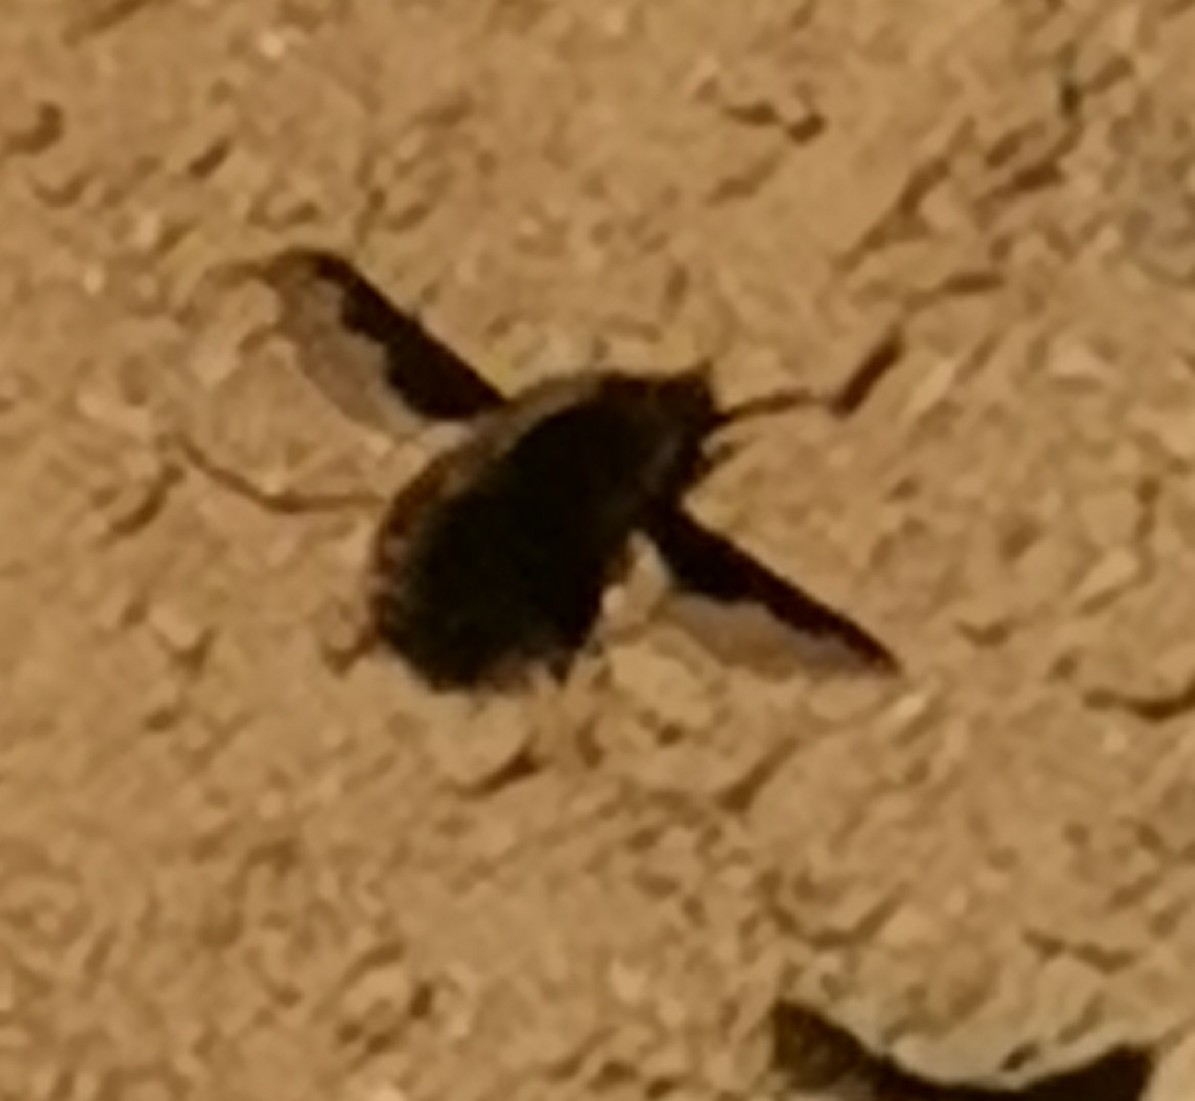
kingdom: Animalia
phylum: Arthropoda
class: Insecta
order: Diptera
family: Bombyliidae
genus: Bombylius
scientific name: Bombylius major
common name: Bee fly
